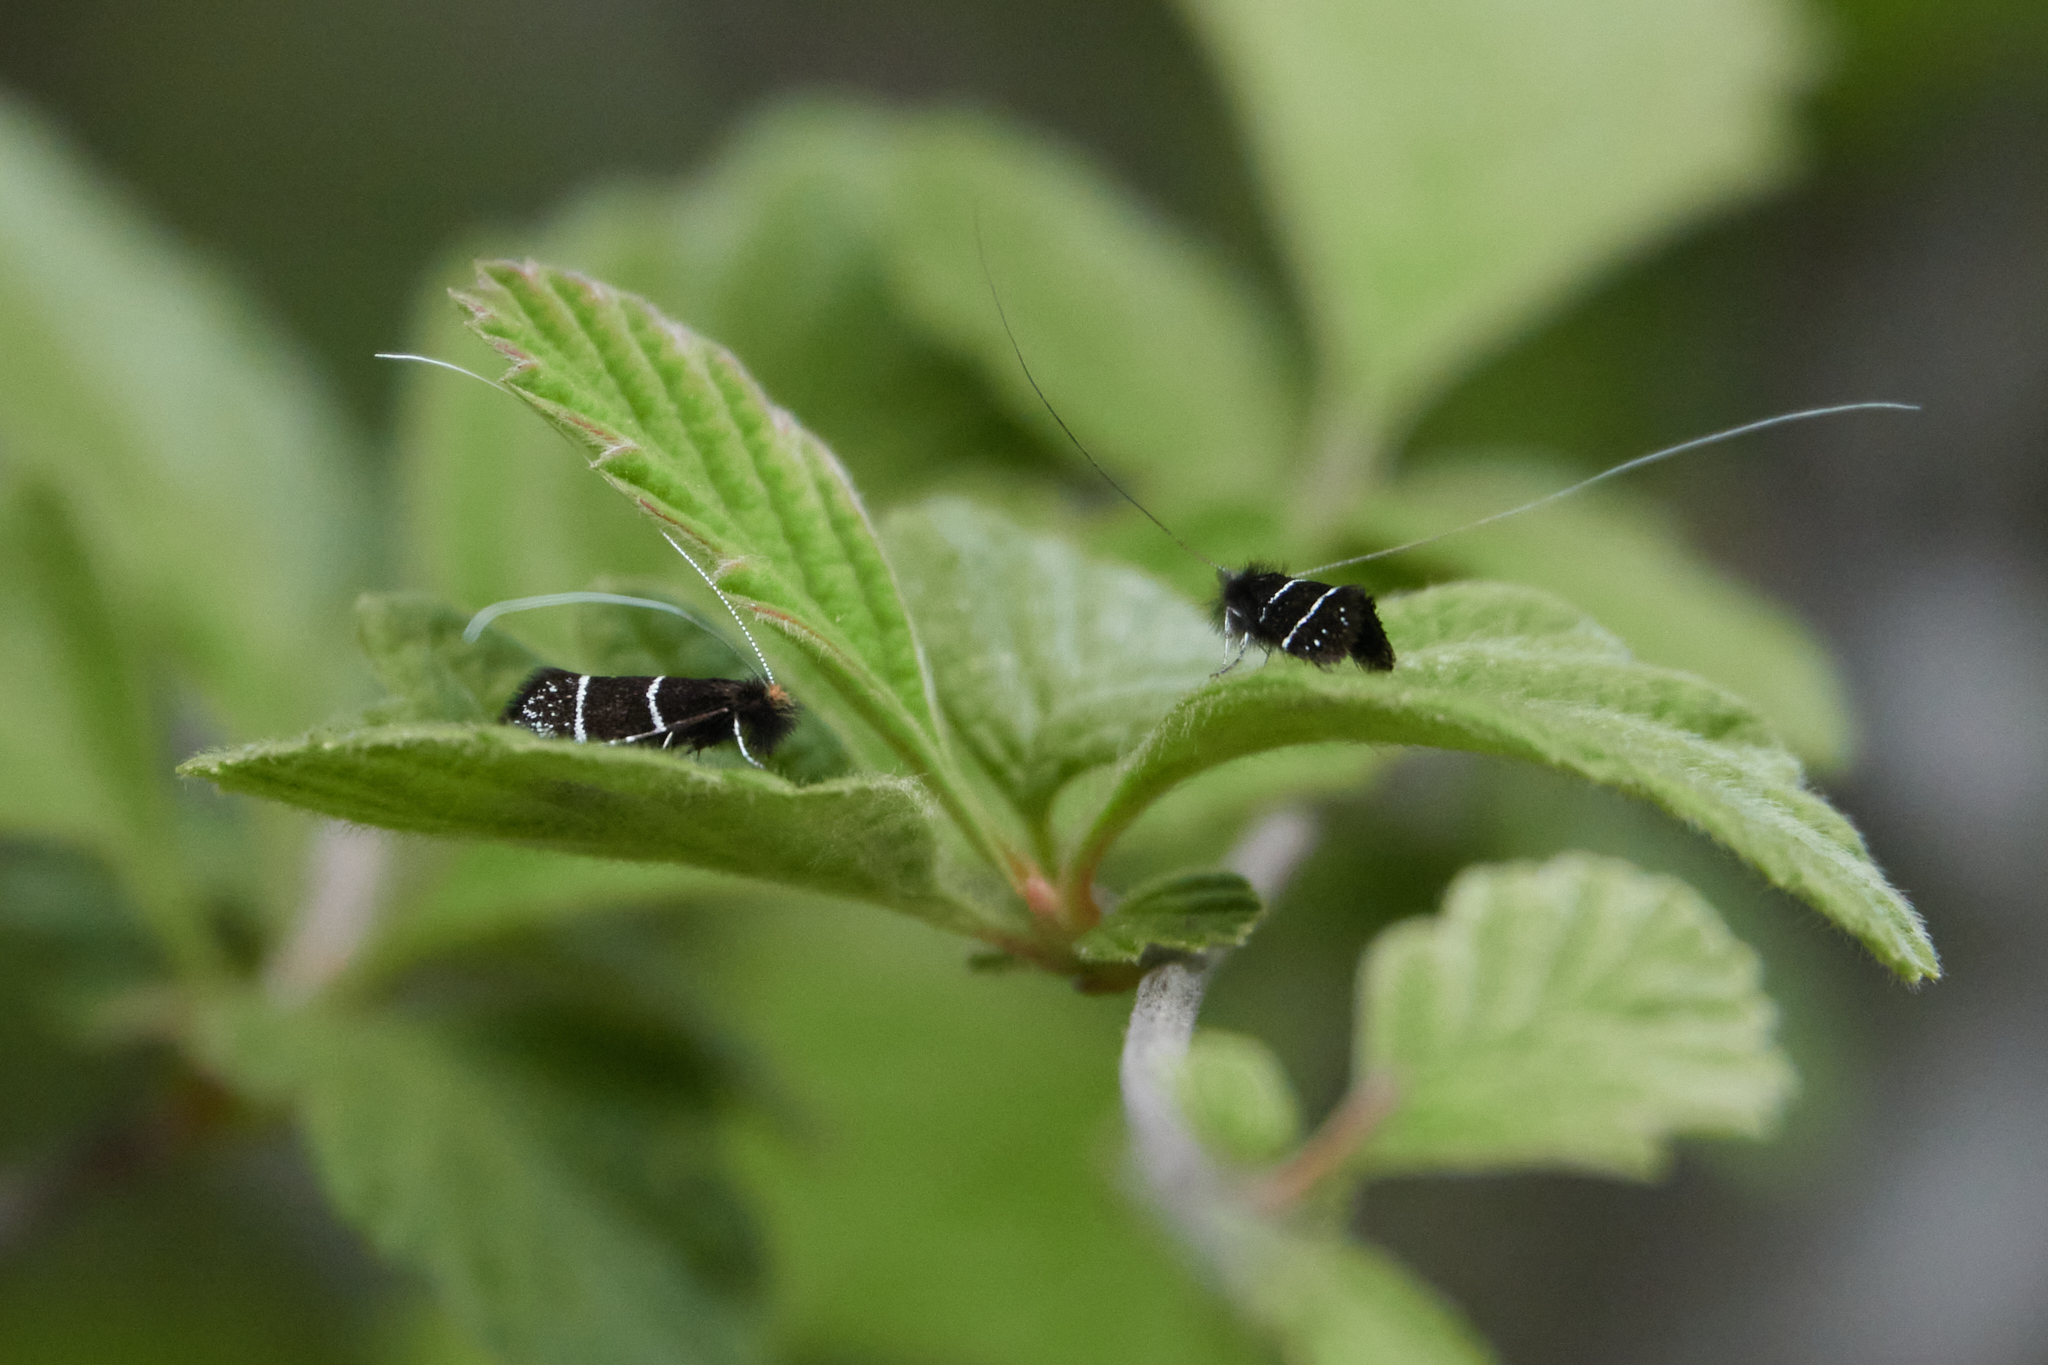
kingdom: Animalia
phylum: Arthropoda
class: Insecta
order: Lepidoptera
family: Adelidae
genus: Adela
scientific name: Adela septentrionella
